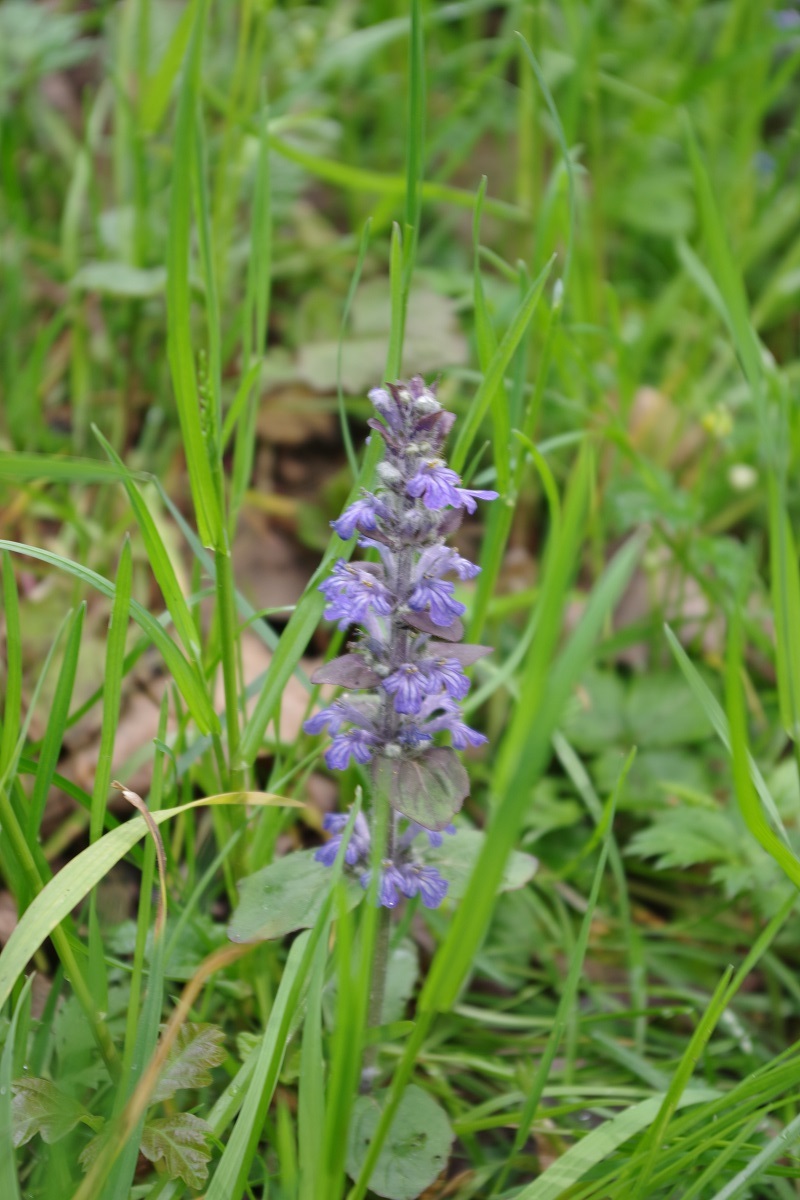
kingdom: Plantae
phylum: Tracheophyta
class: Magnoliopsida
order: Lamiales
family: Lamiaceae
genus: Ajuga
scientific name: Ajuga reptans
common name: Bugle
